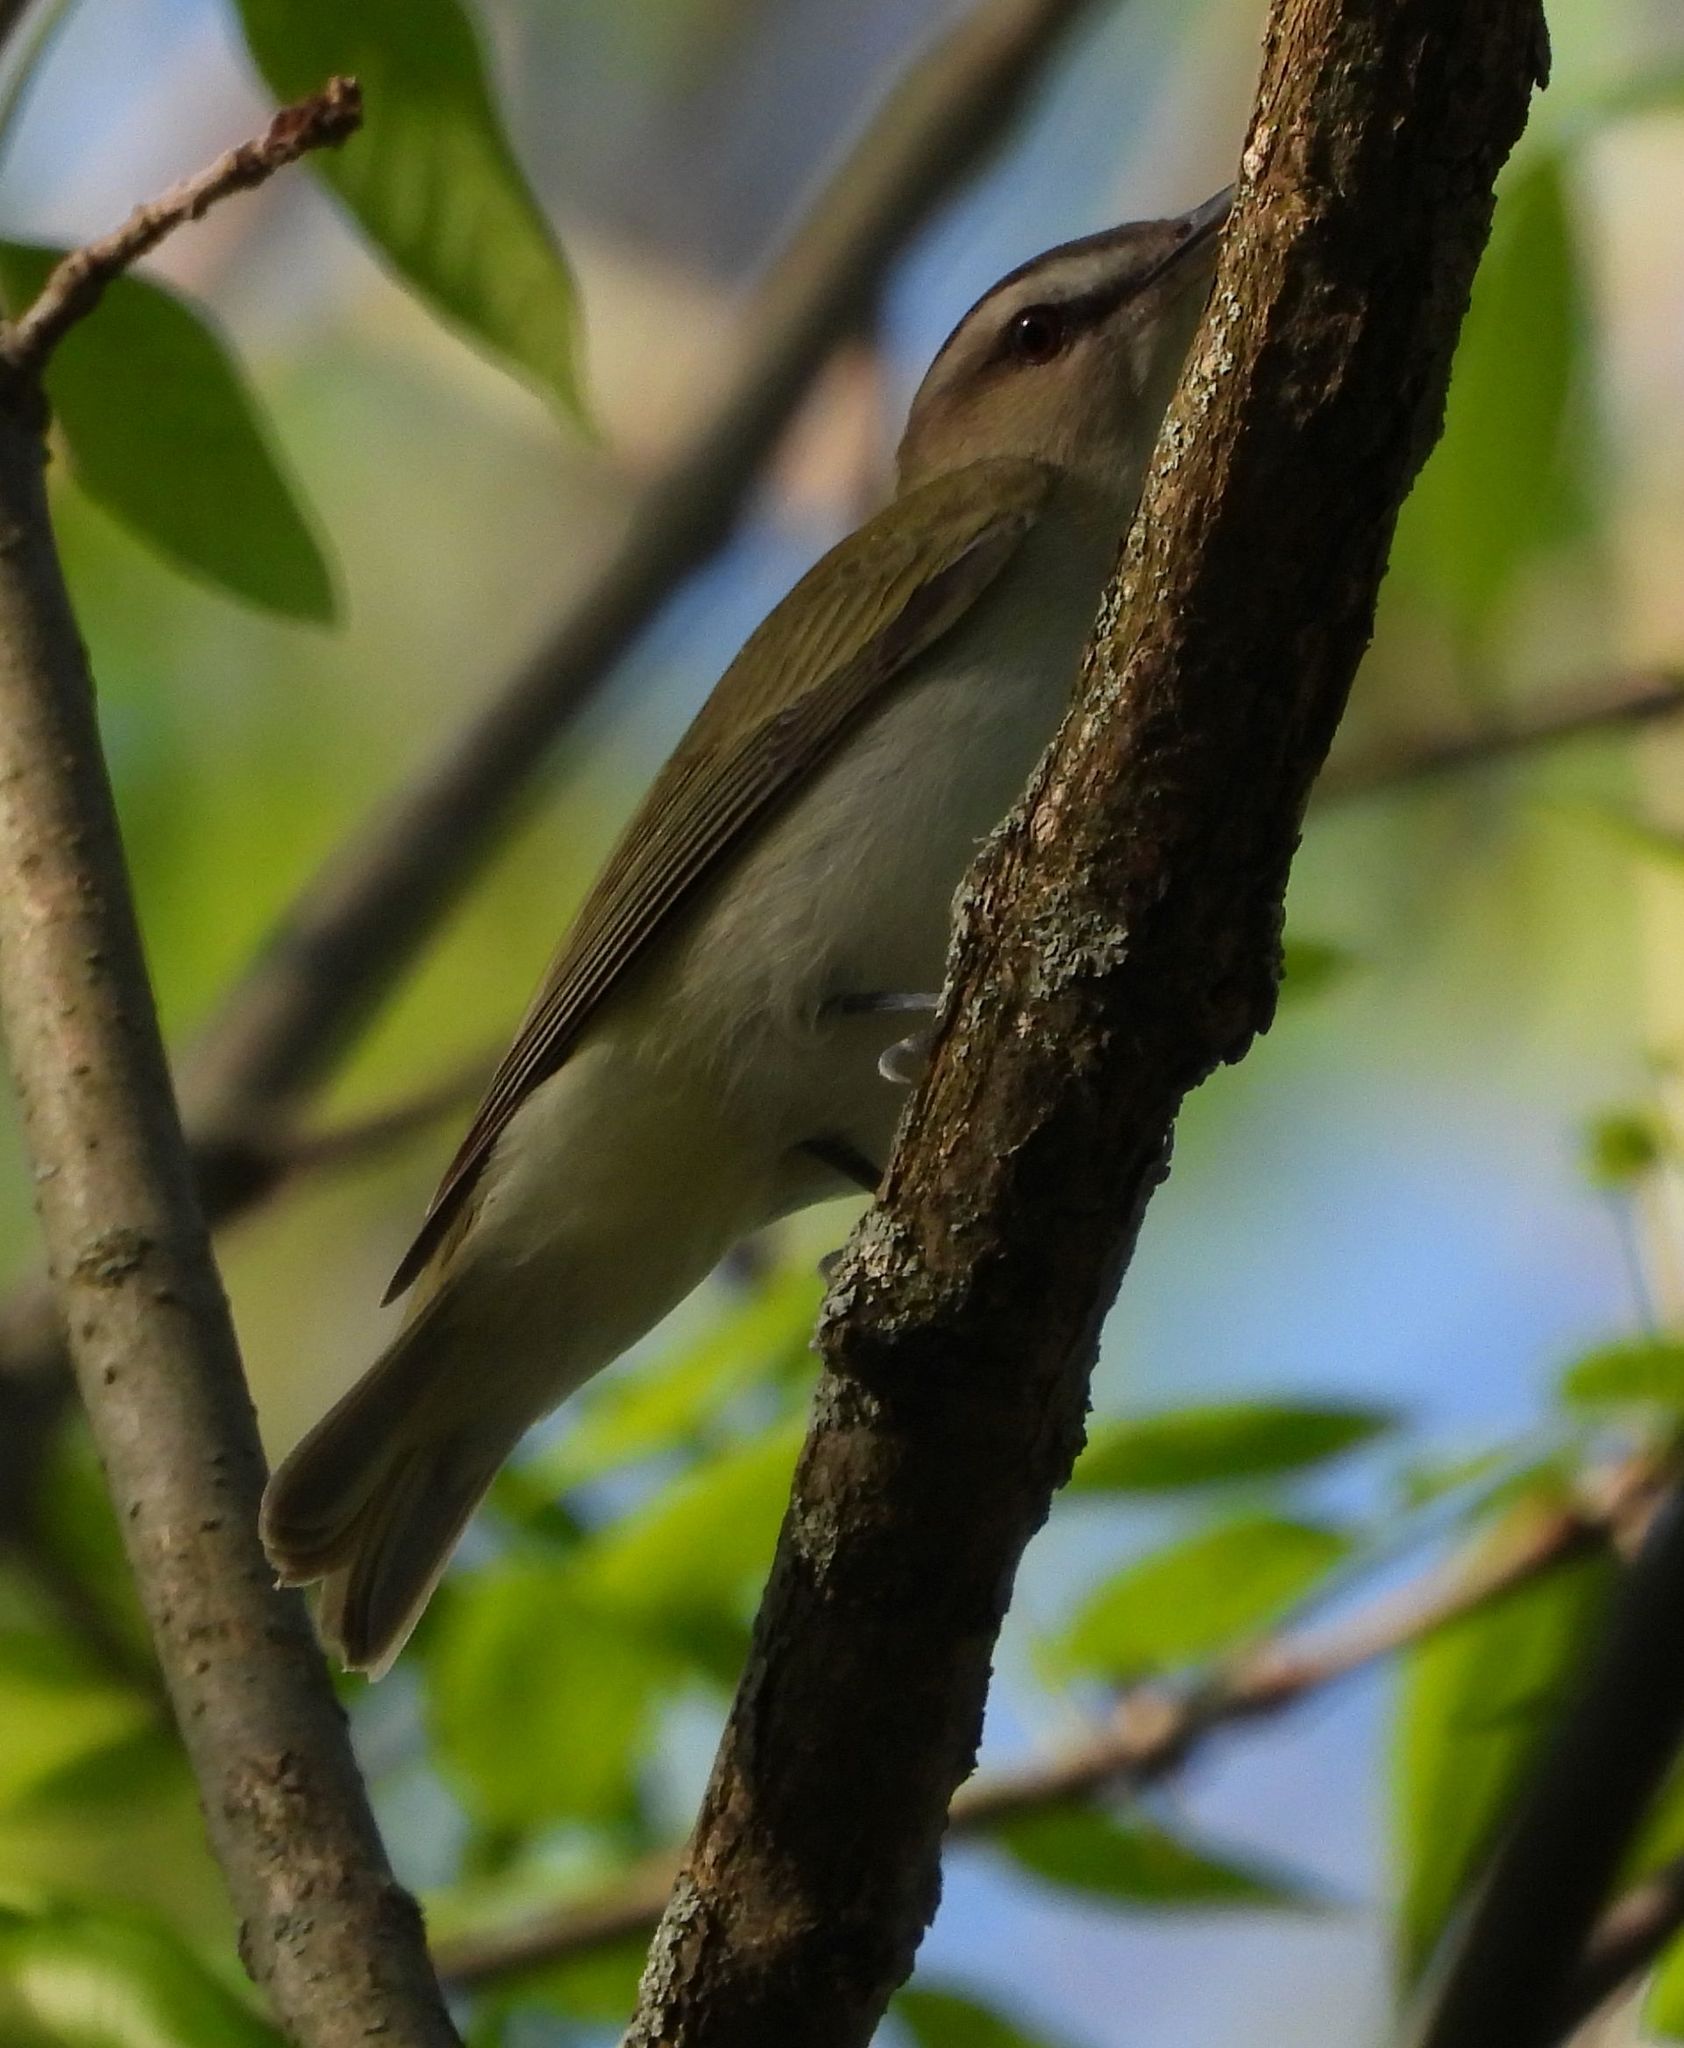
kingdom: Animalia
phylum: Chordata
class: Aves
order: Passeriformes
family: Vireonidae
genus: Vireo
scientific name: Vireo olivaceus
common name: Red-eyed vireo
